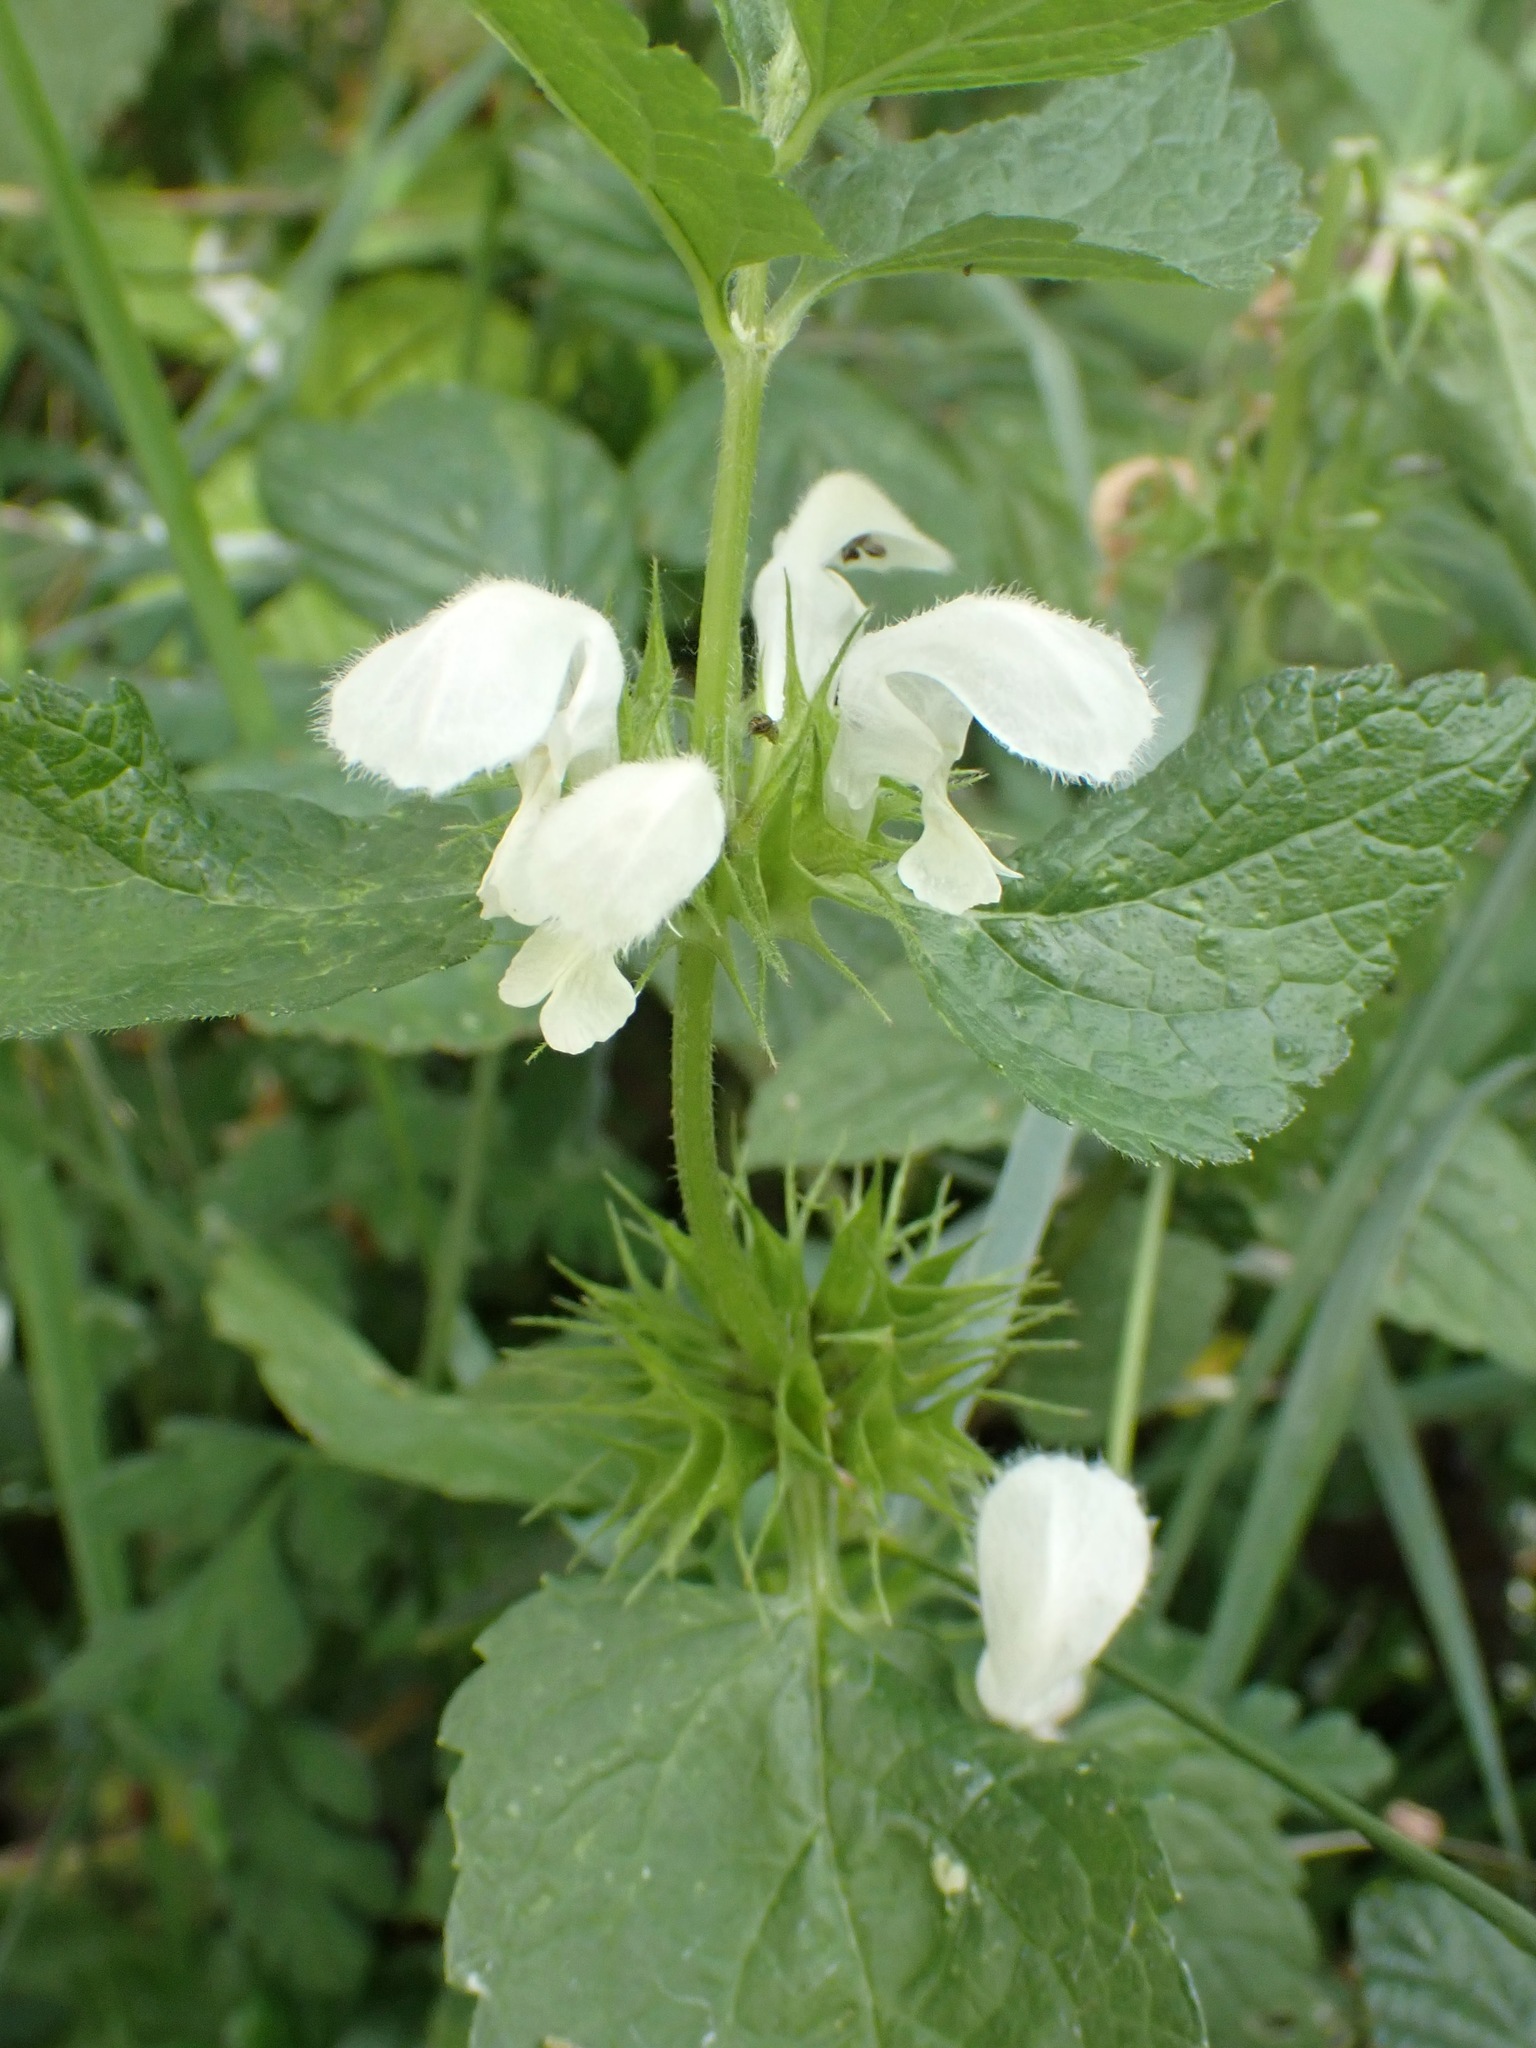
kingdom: Plantae
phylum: Tracheophyta
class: Magnoliopsida
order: Lamiales
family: Lamiaceae
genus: Lamium
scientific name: Lamium album
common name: White dead-nettle
